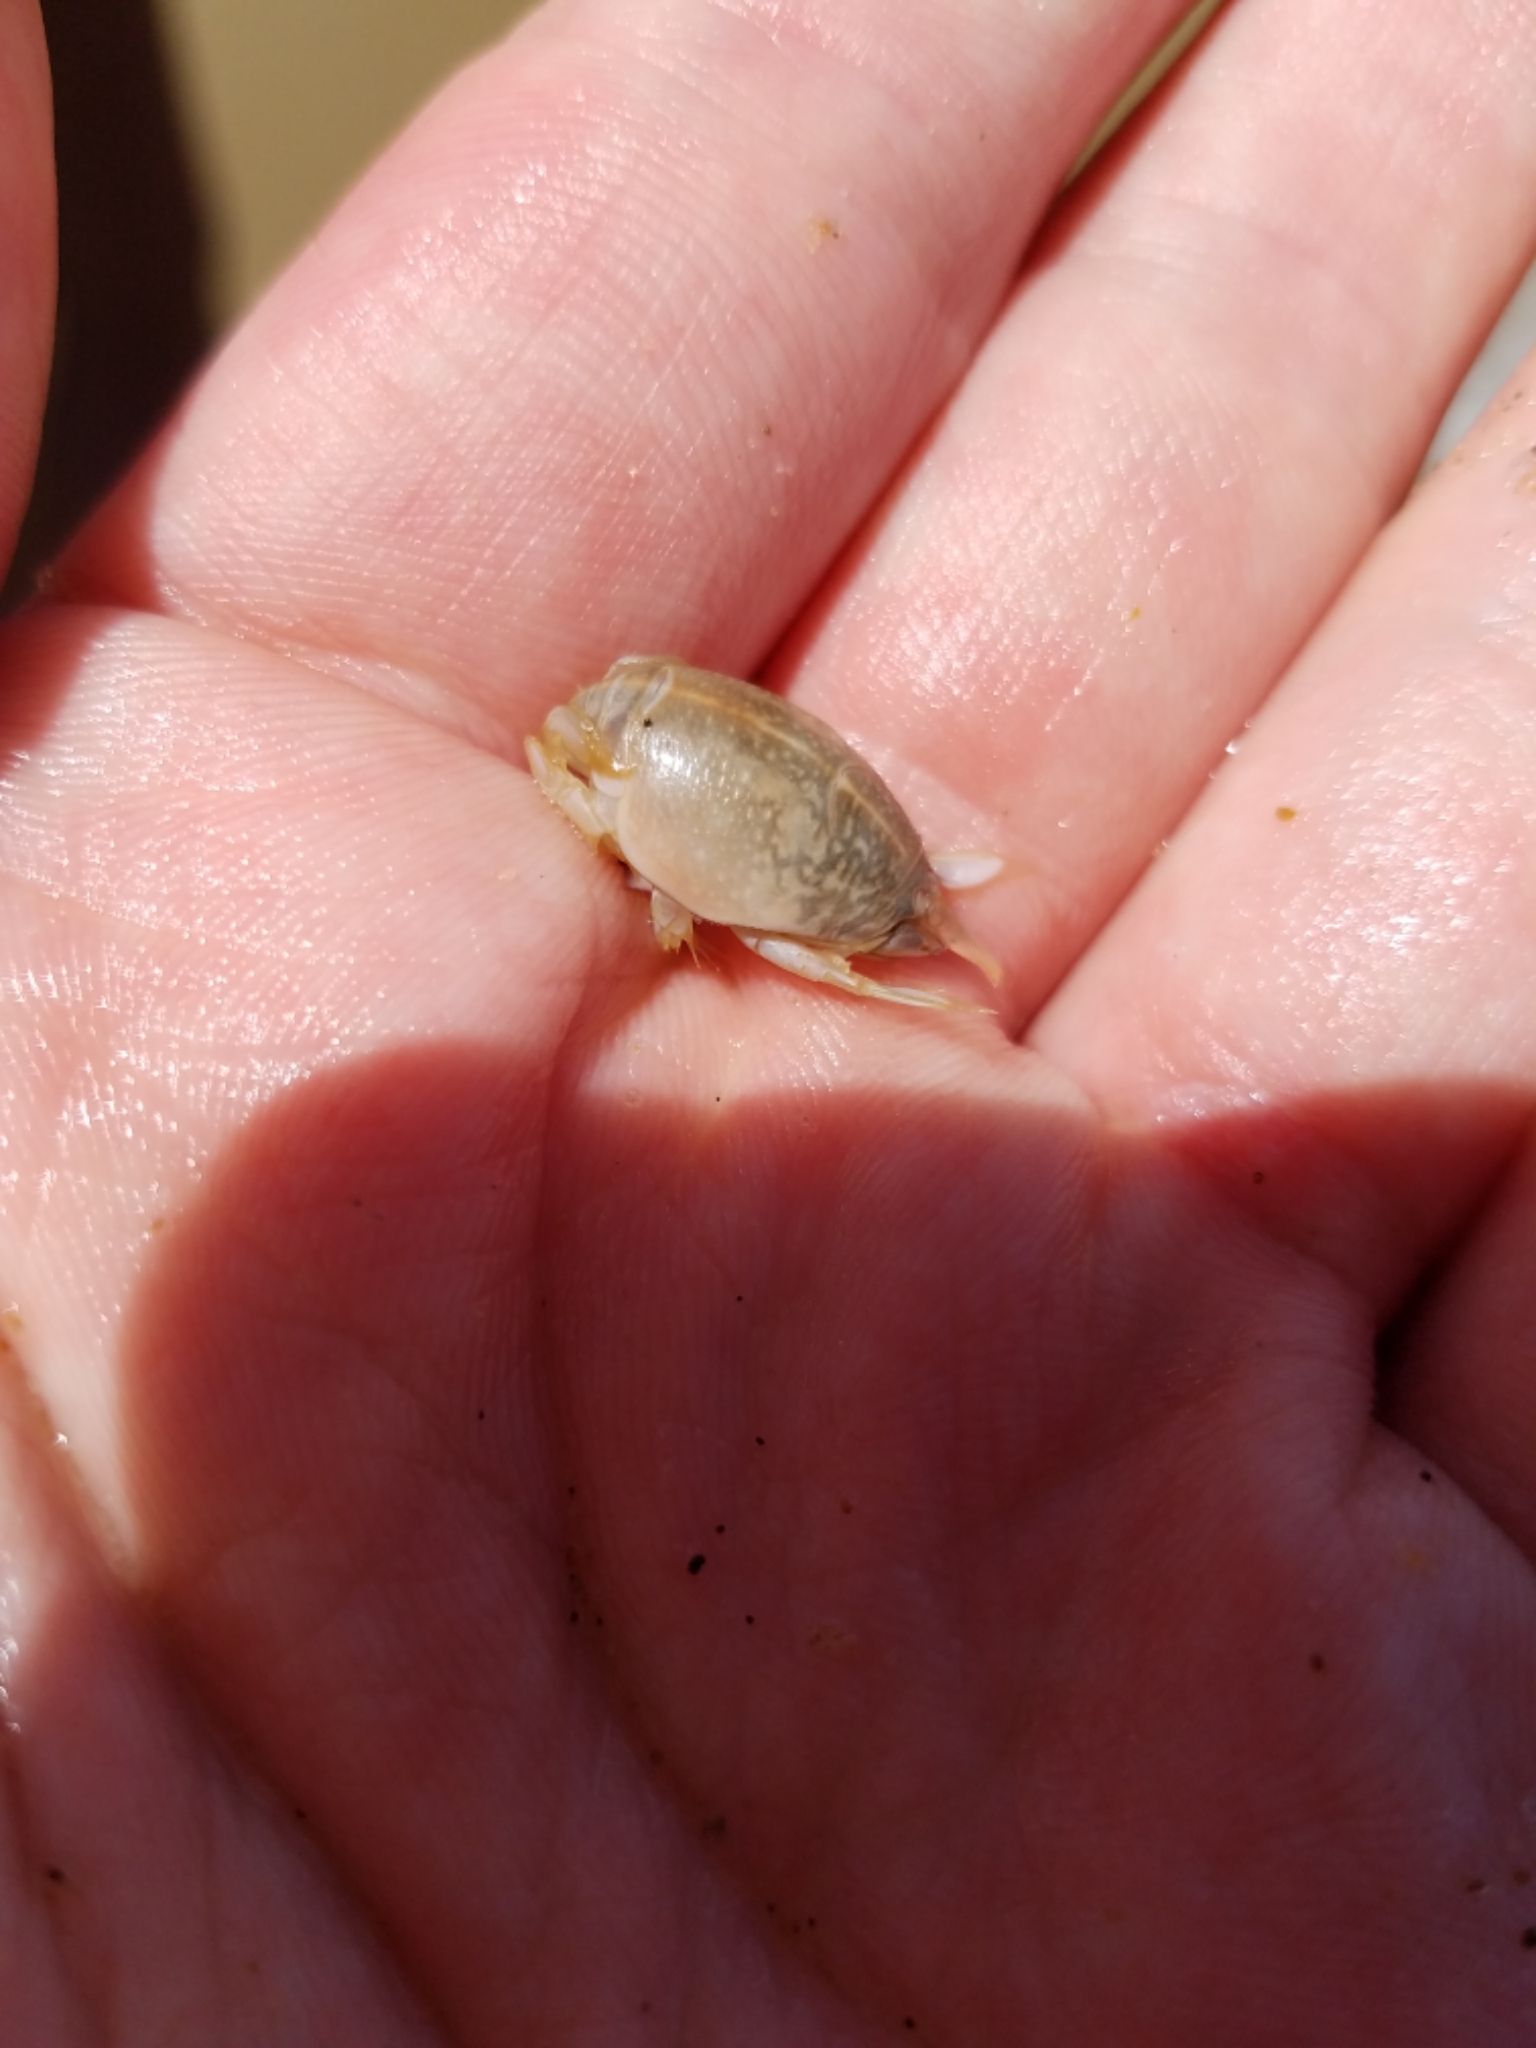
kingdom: Animalia
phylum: Arthropoda
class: Malacostraca
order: Decapoda
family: Hippidae
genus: Emerita
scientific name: Emerita talpoida
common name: Atlantic sand crab
